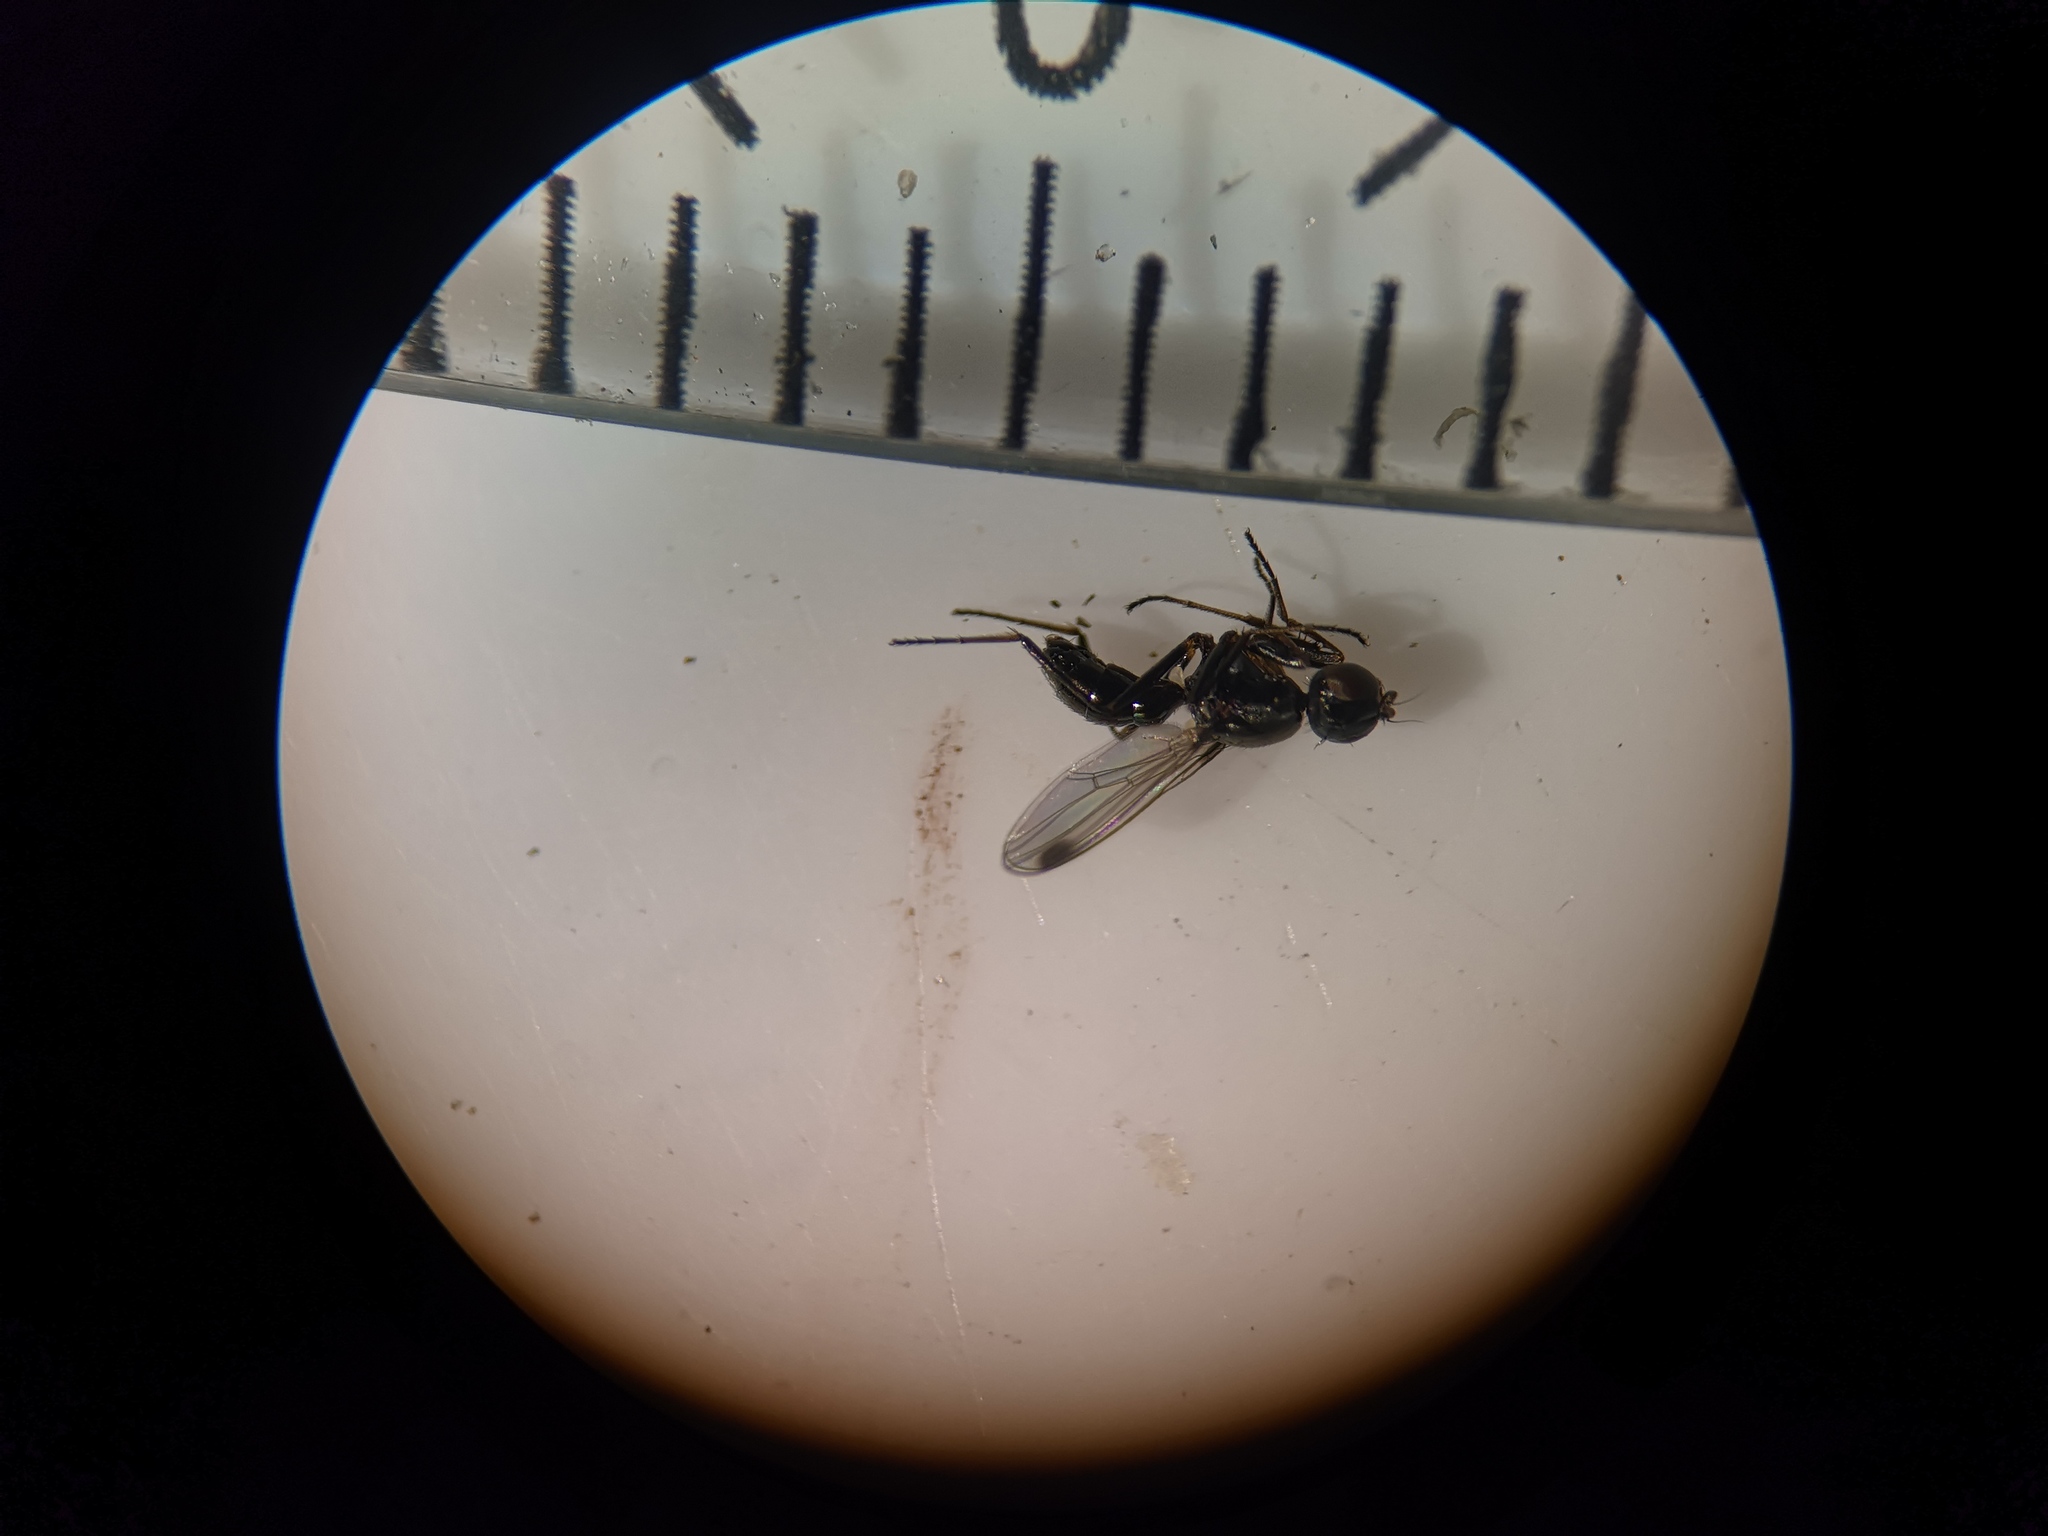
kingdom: Animalia
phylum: Arthropoda
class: Insecta
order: Diptera
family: Sepsidae
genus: Sepsis
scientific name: Sepsis cynipsea
